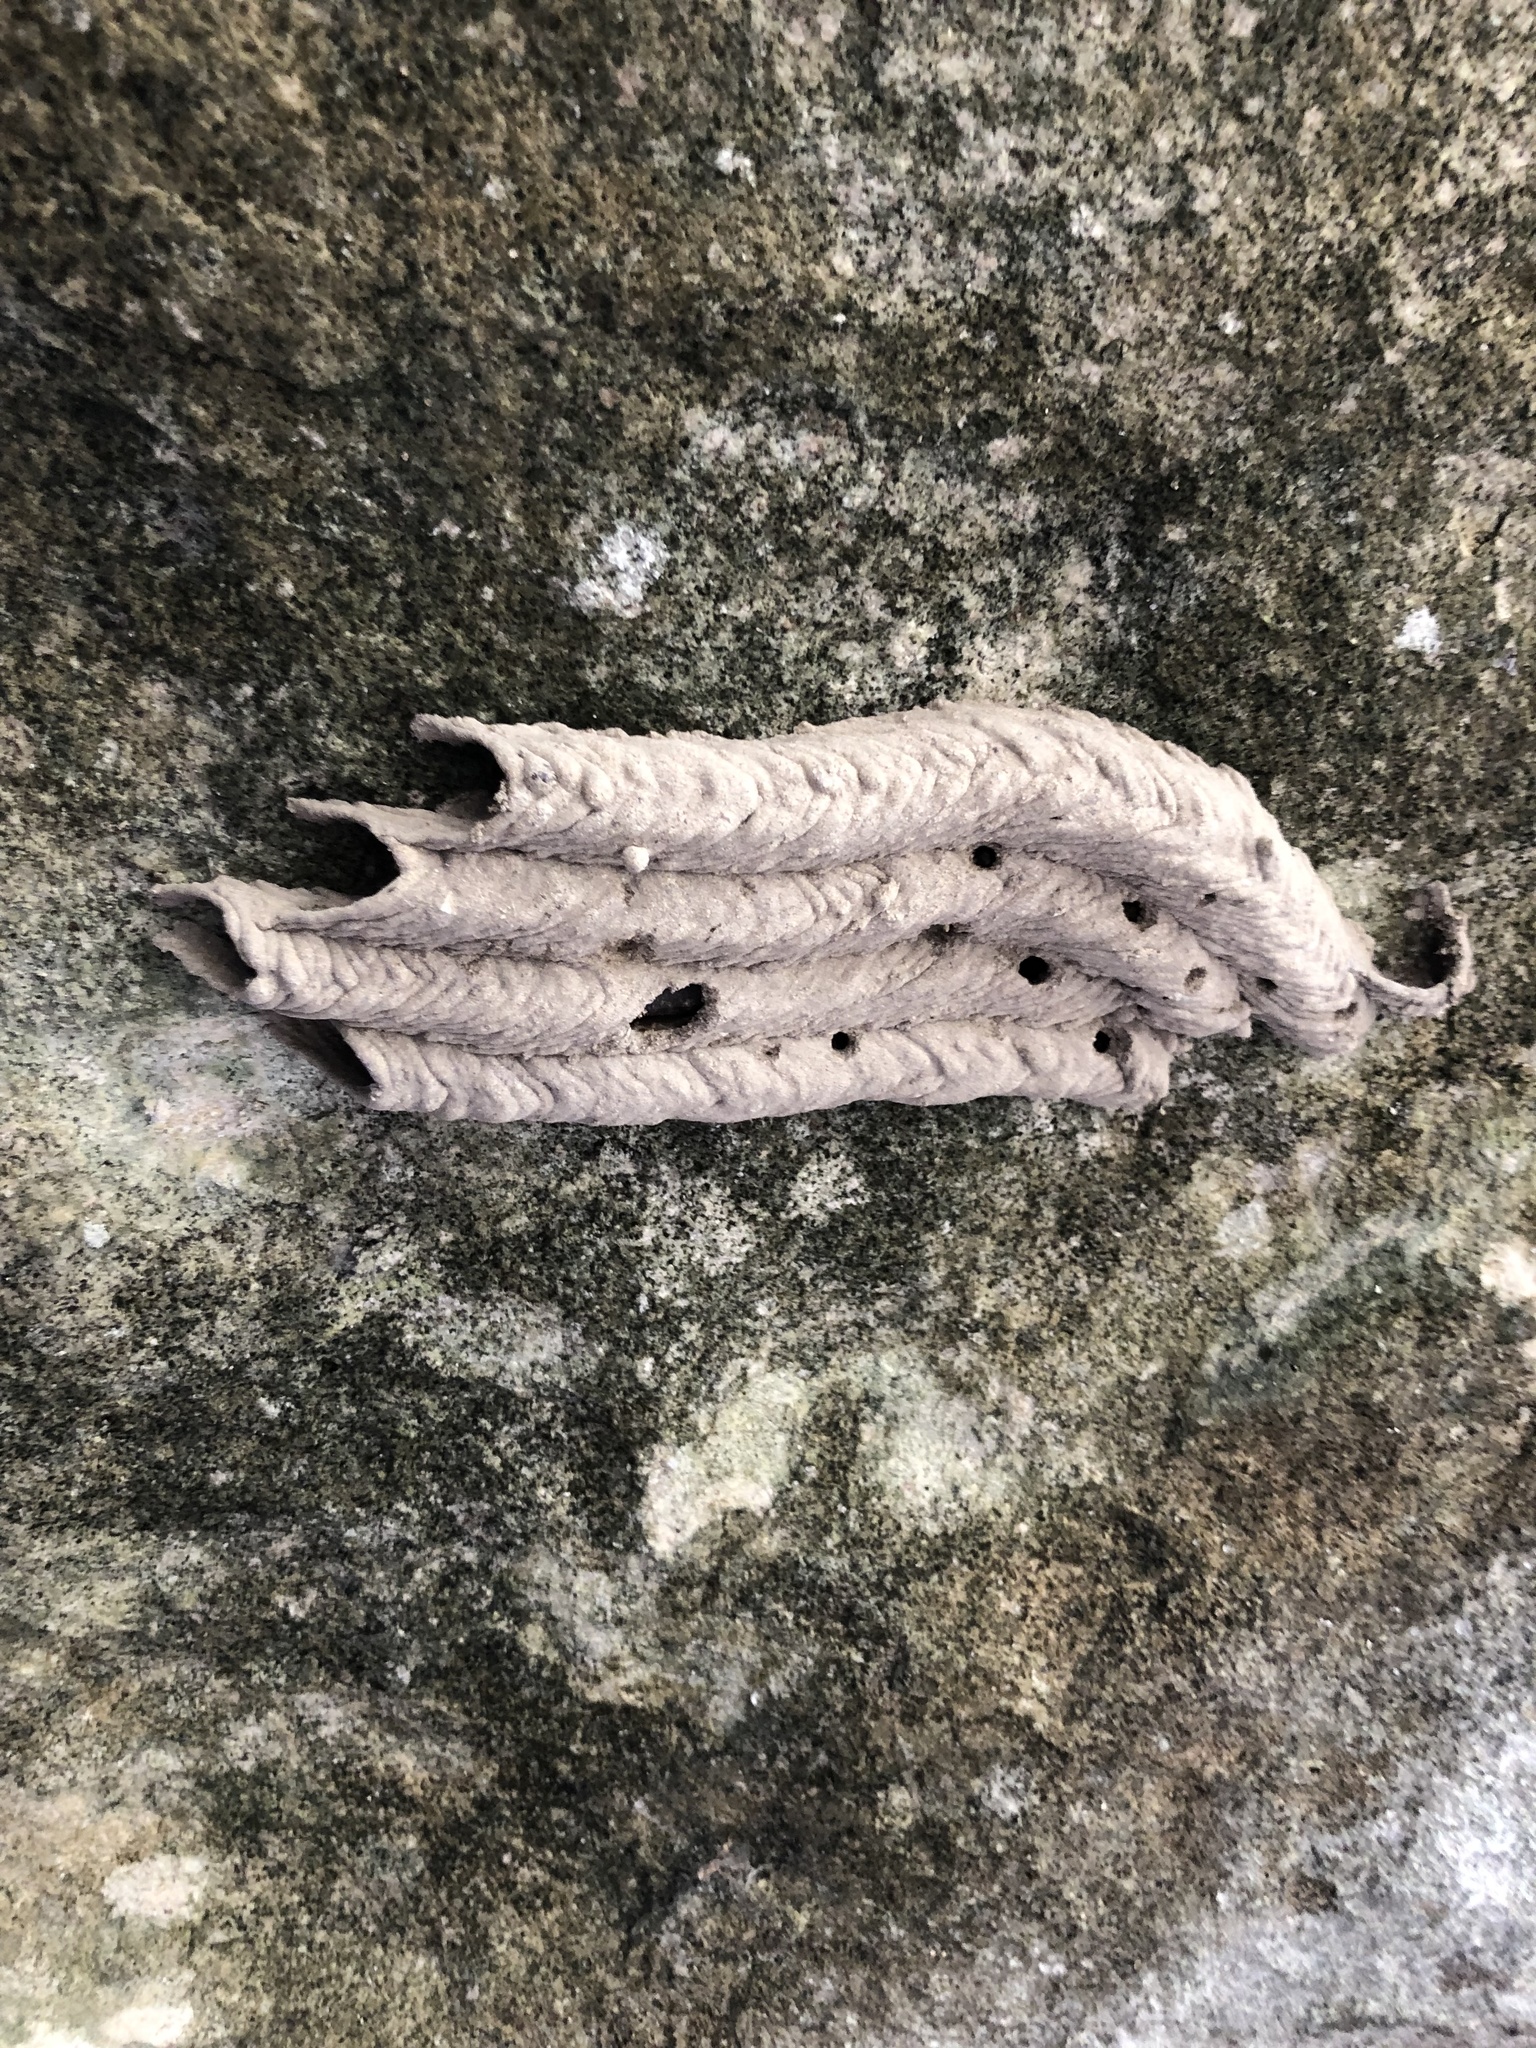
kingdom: Animalia
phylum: Arthropoda
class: Insecta
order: Hymenoptera
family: Crabronidae
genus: Trypoxylon
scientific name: Trypoxylon politum
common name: Organ-pipe mud-dauber wasp
